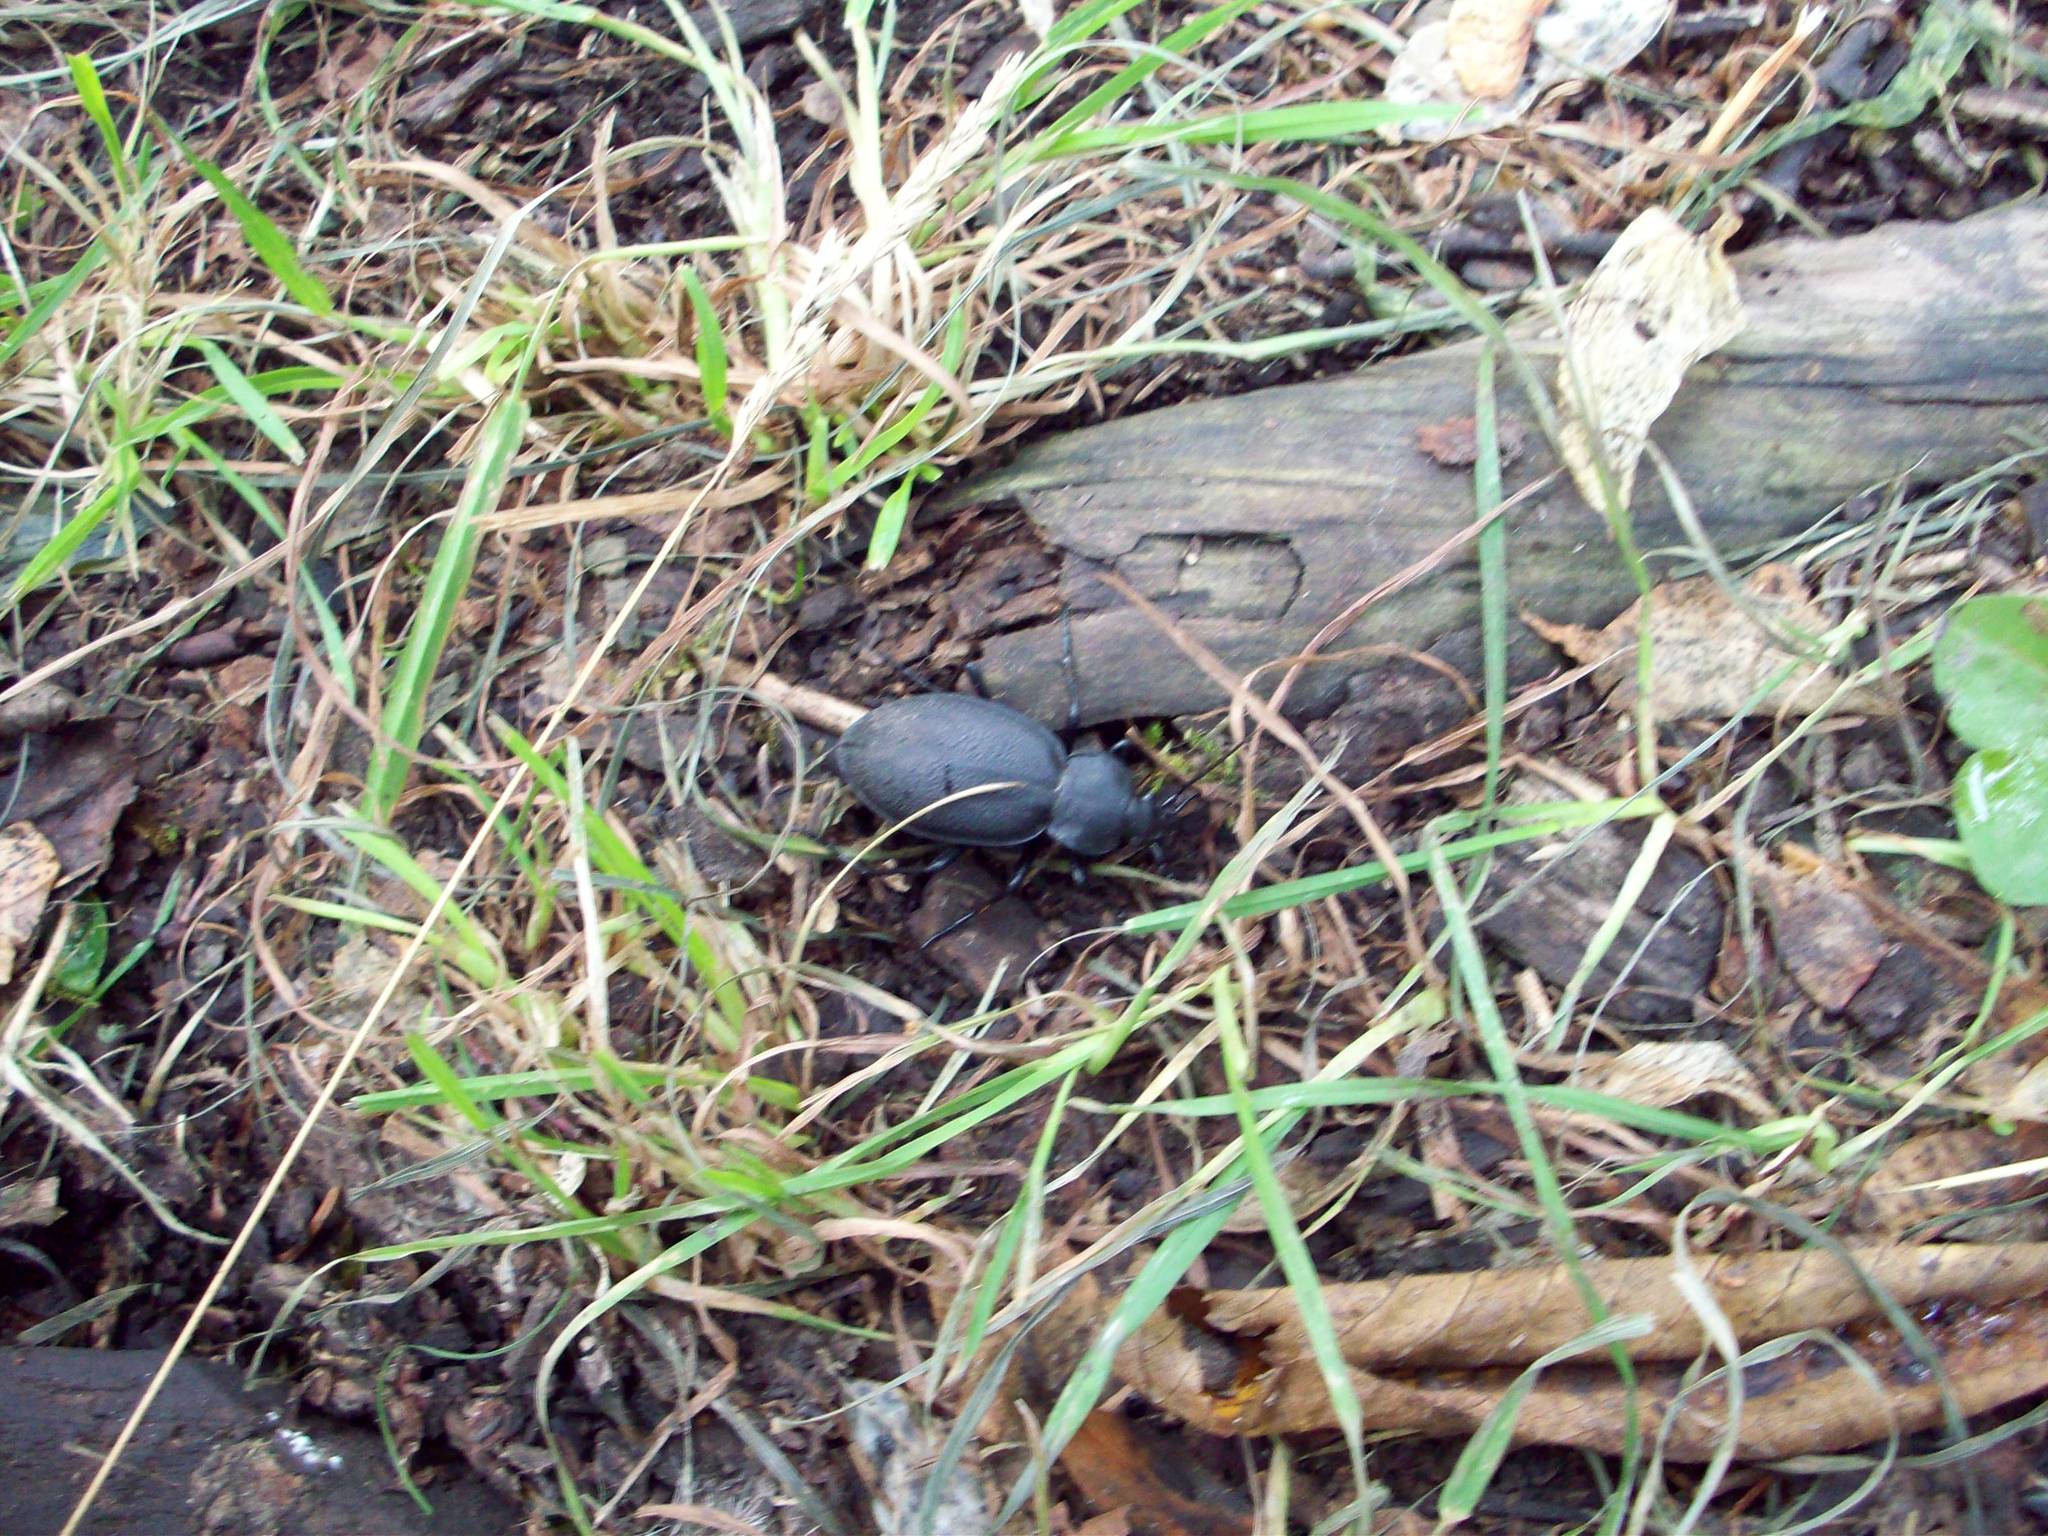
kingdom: Animalia
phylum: Arthropoda
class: Insecta
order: Coleoptera
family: Carabidae
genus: Carabus
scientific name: Carabus coriaceus
